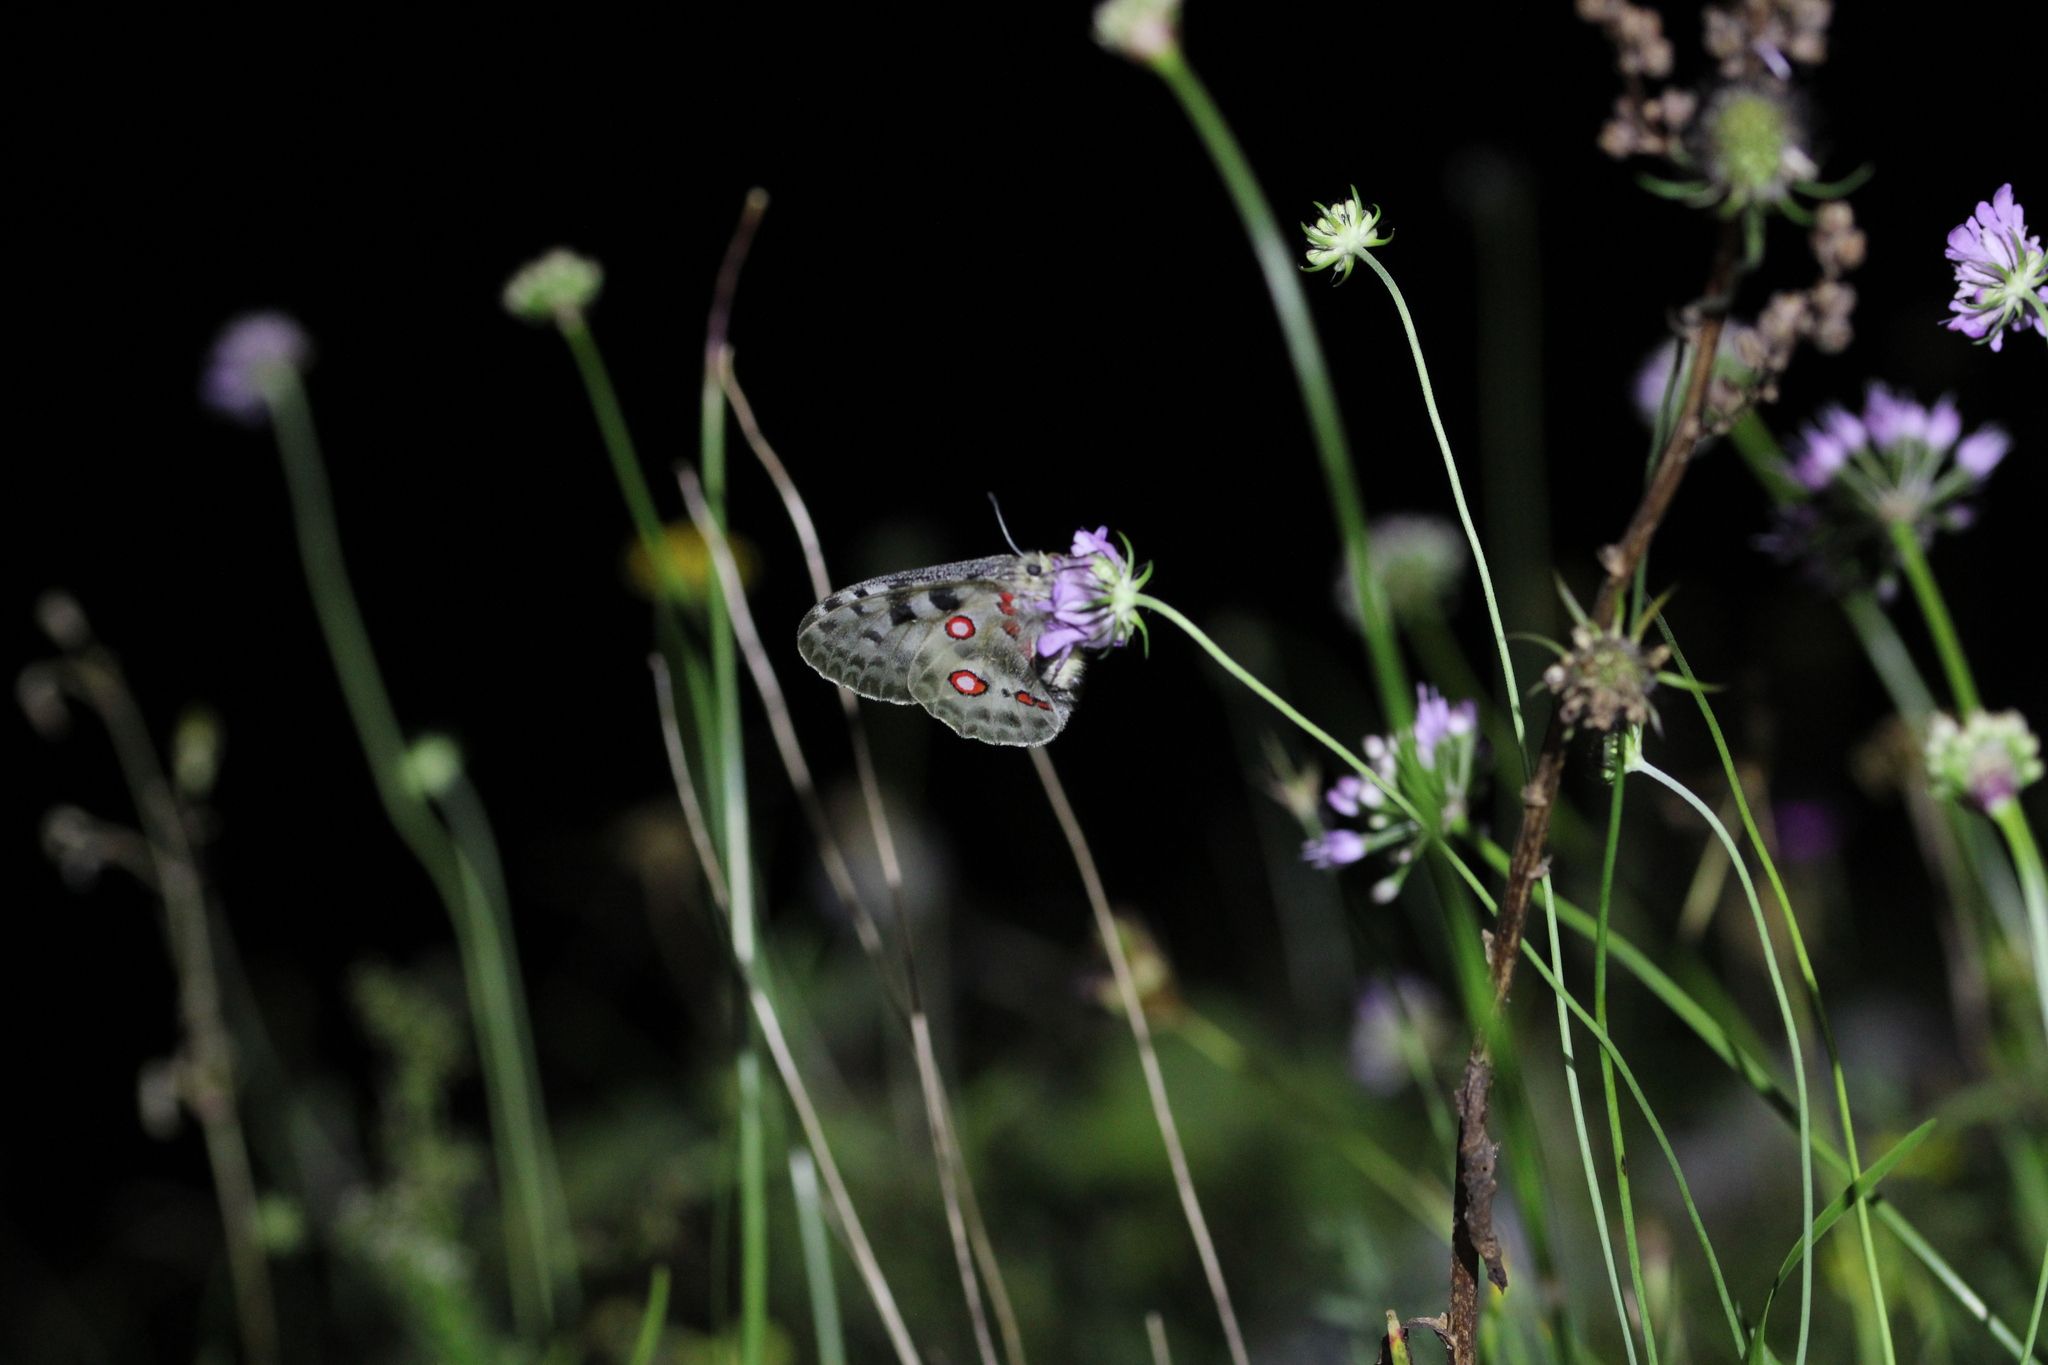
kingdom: Animalia
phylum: Arthropoda
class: Insecta
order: Lepidoptera
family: Papilionidae
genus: Parnassius
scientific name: Parnassius apollo
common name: Apollo
